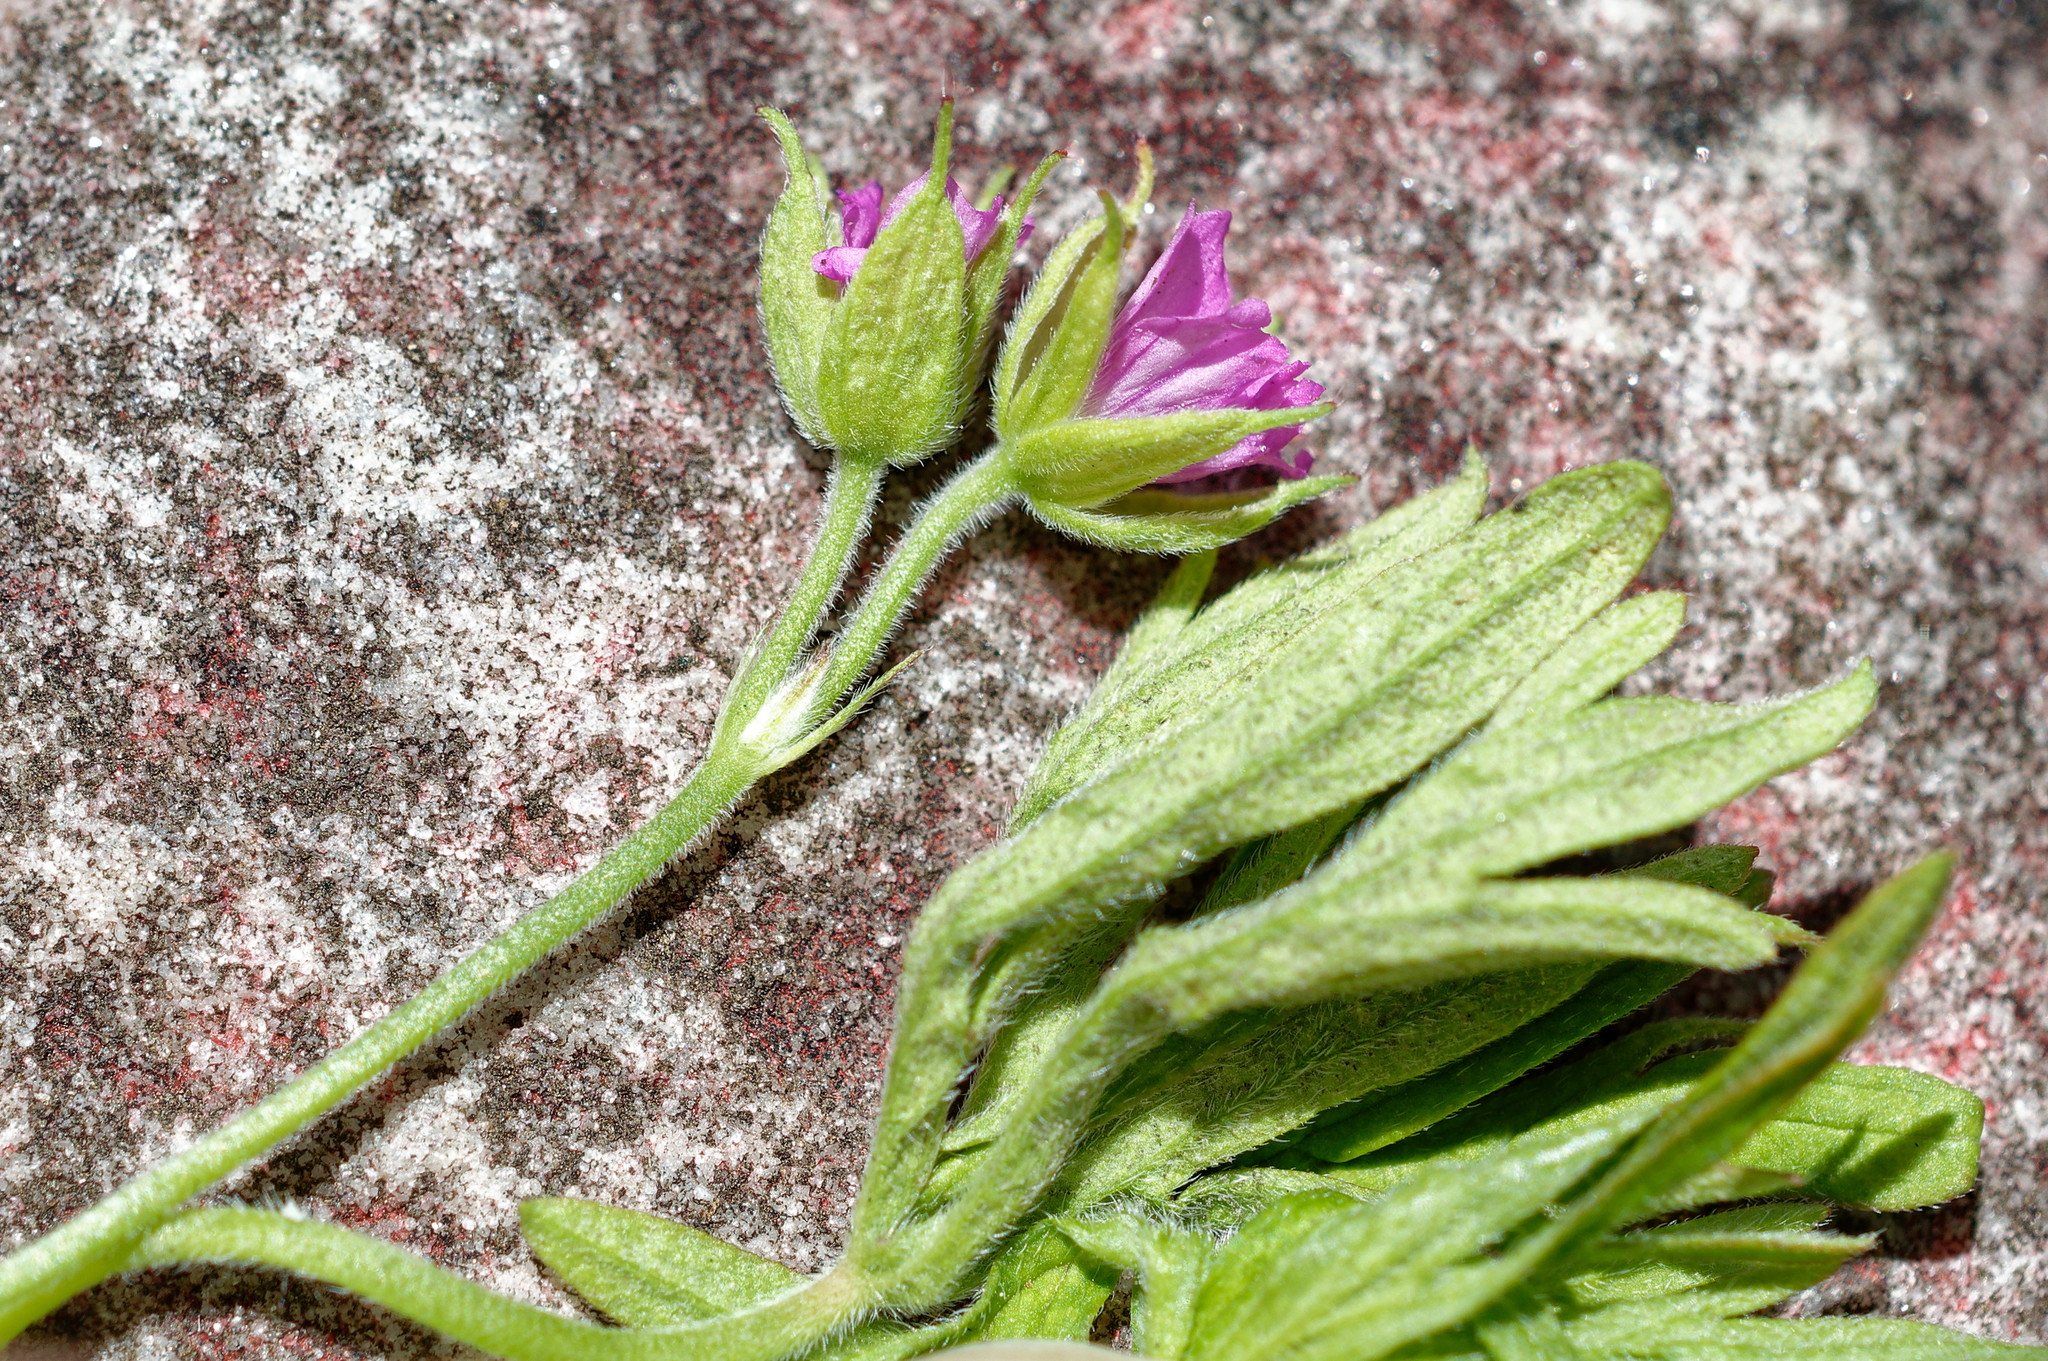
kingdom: Plantae
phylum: Tracheophyta
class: Magnoliopsida
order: Geraniales
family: Geraniaceae
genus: Geranium
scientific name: Geranium dissectum
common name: Cut-leaved crane's-bill
